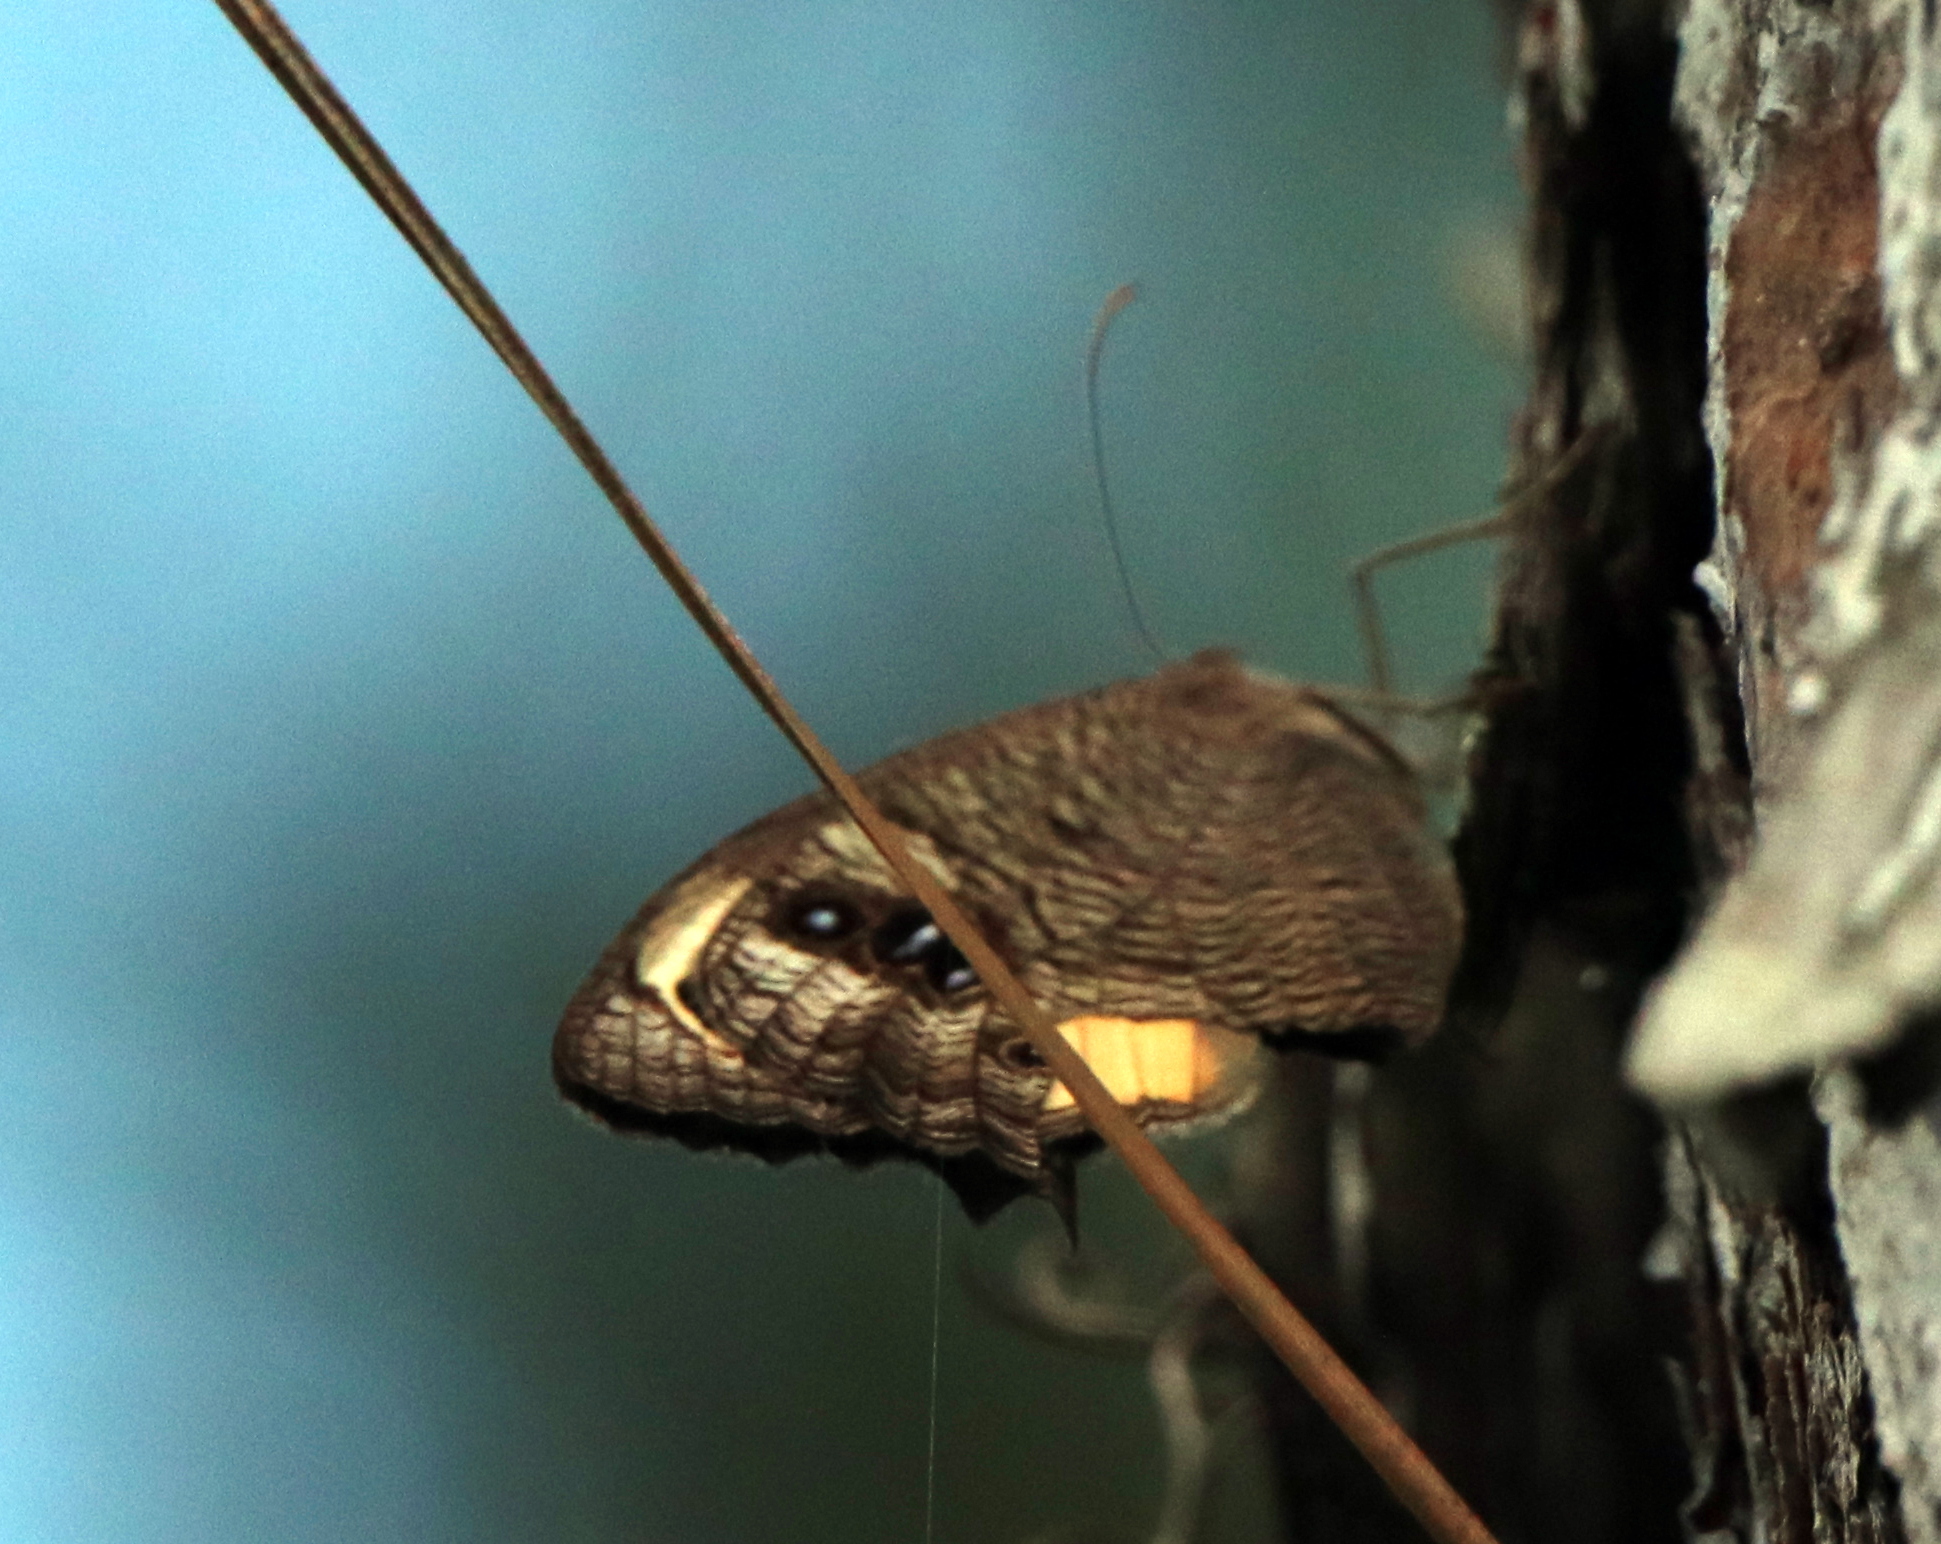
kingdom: Animalia
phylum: Arthropoda
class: Insecta
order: Lepidoptera
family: Nymphalidae
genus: Cercyonis
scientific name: Cercyonis pegala
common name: Common wood-nymph
